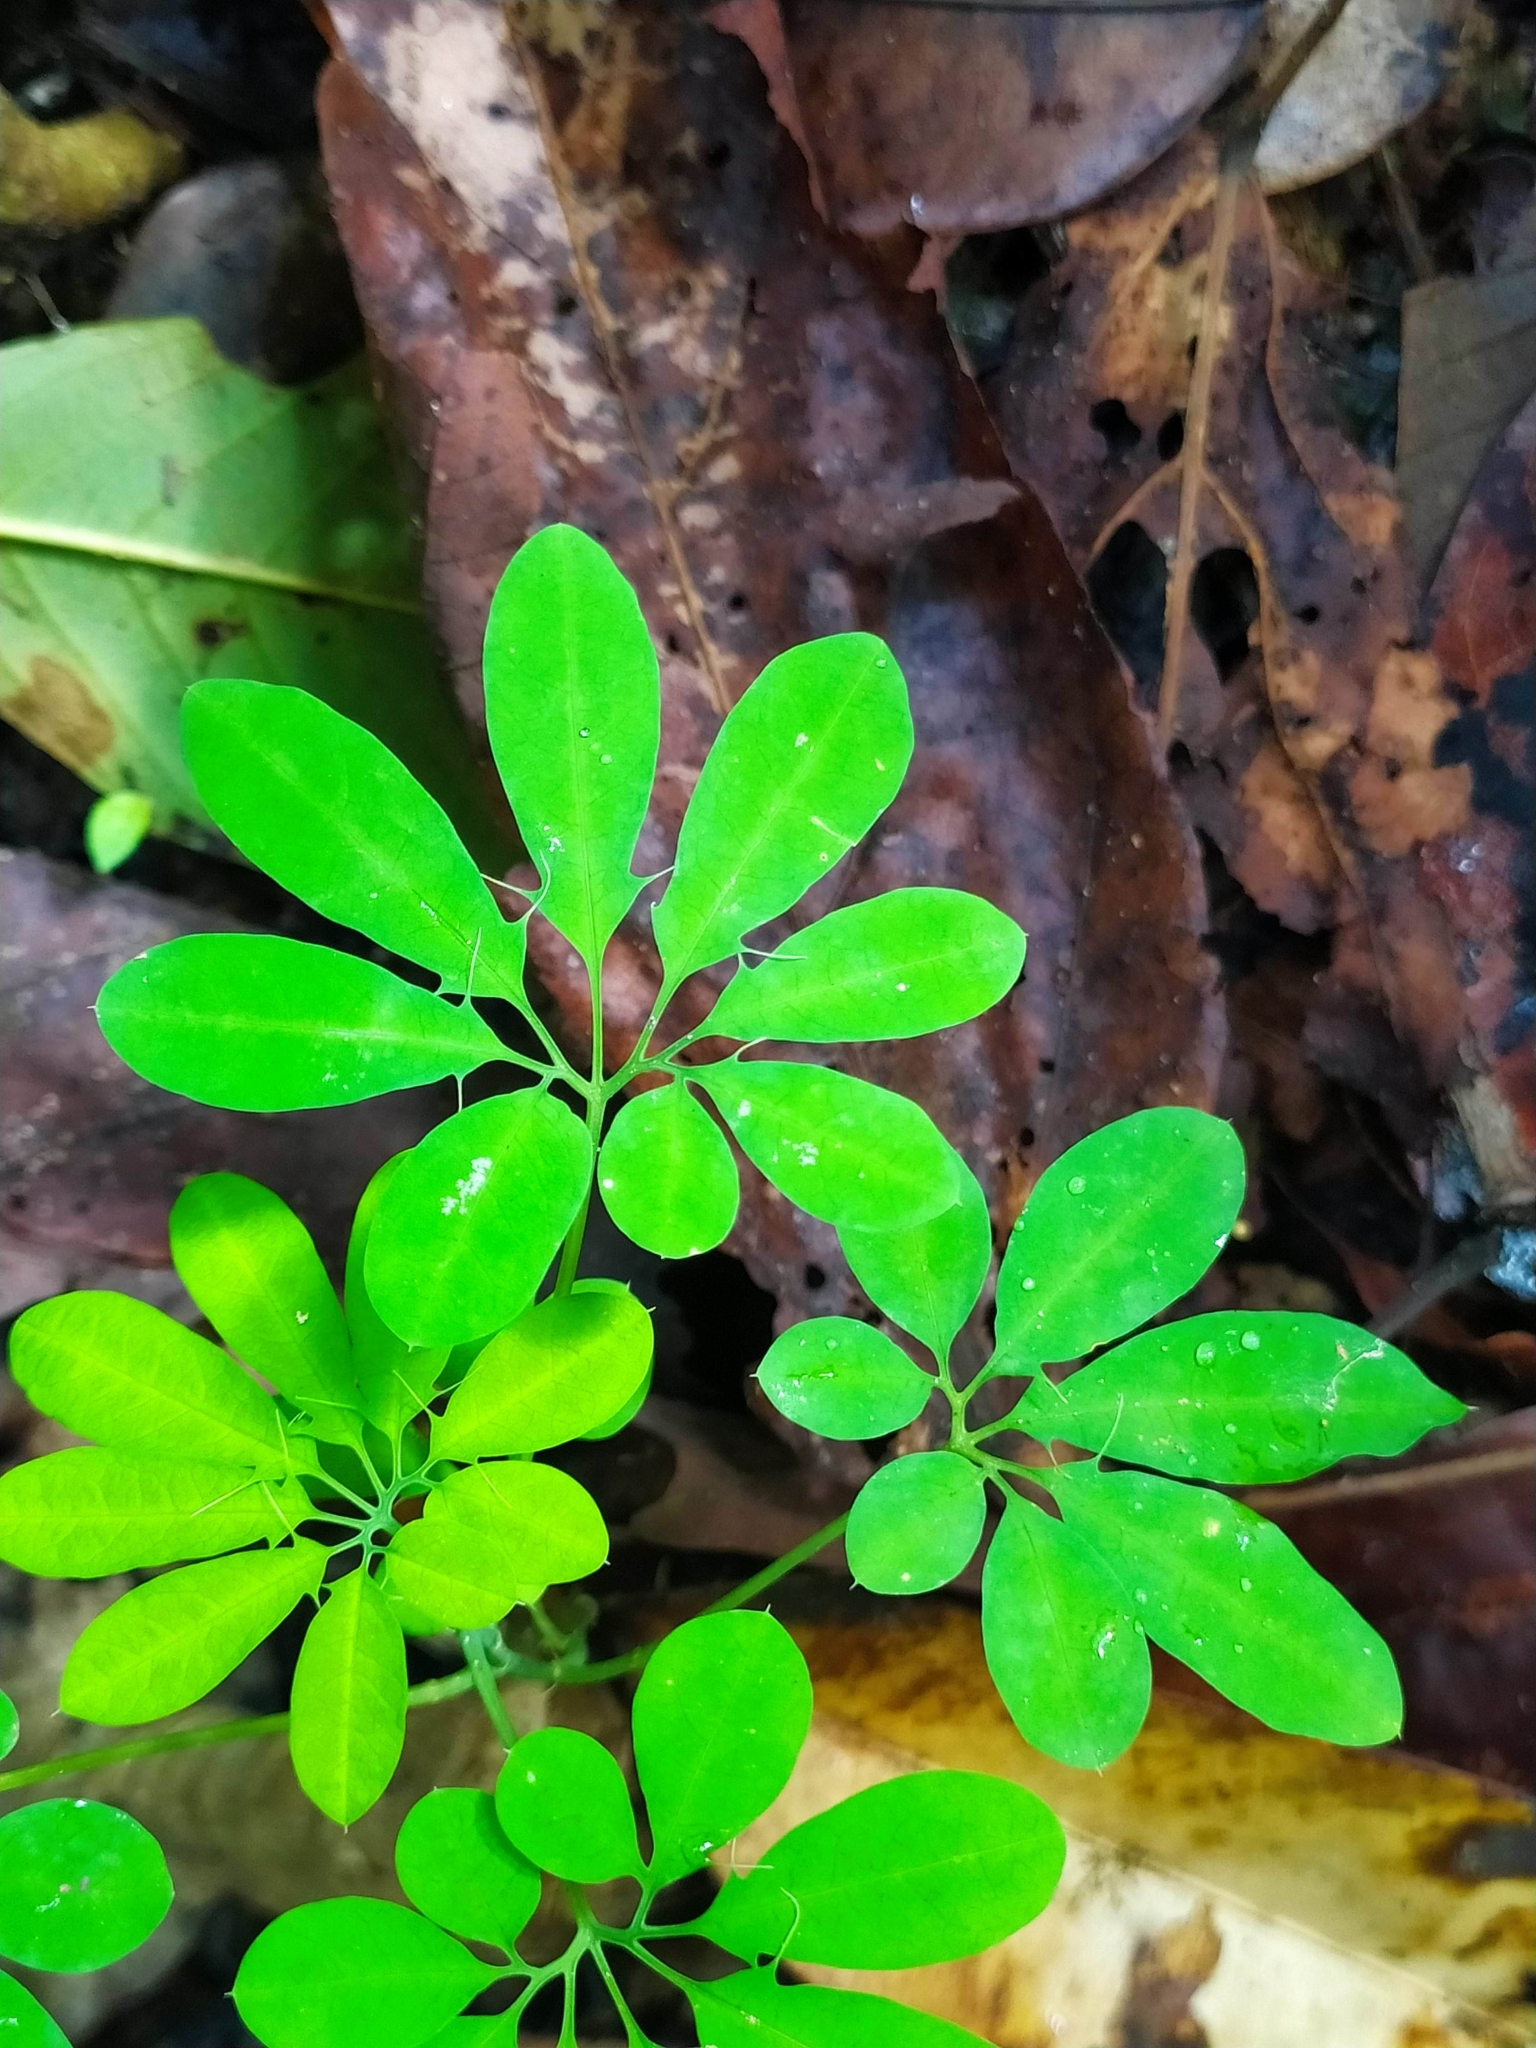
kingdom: Plantae
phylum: Tracheophyta
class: Magnoliopsida
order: Malpighiales
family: Passifloraceae
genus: Passiflora
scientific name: Passiflora cirrhiflora
